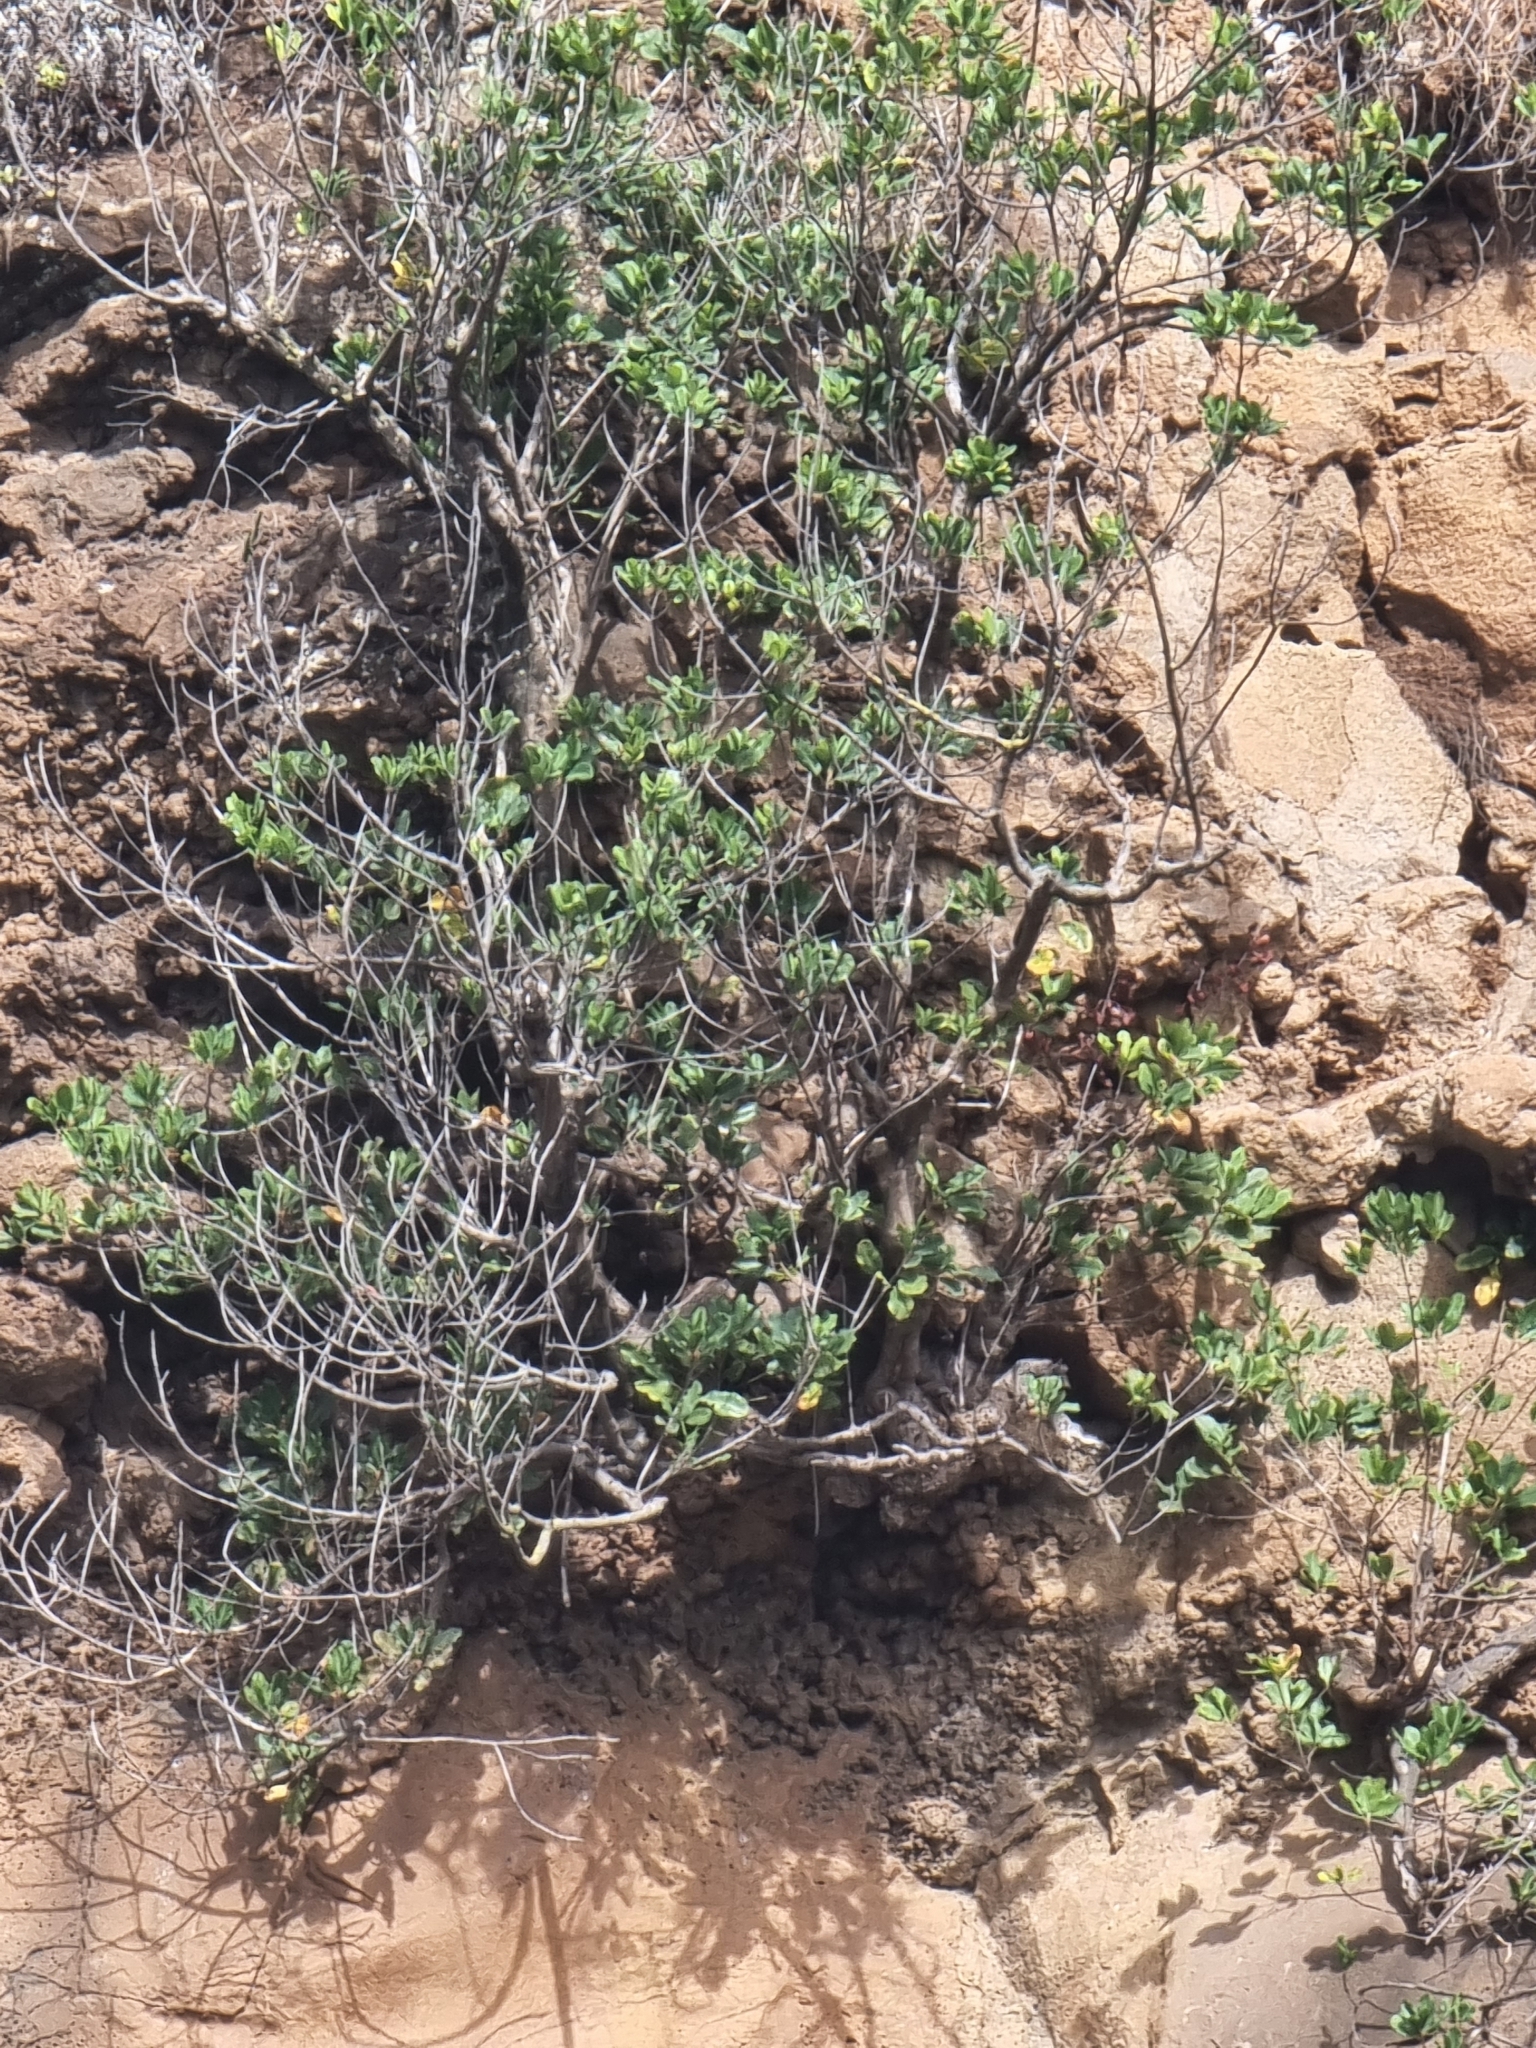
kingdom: Plantae
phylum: Tracheophyta
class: Magnoliopsida
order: Ericales
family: Sapotaceae
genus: Sideroxylon
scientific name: Sideroxylon mirmulans
